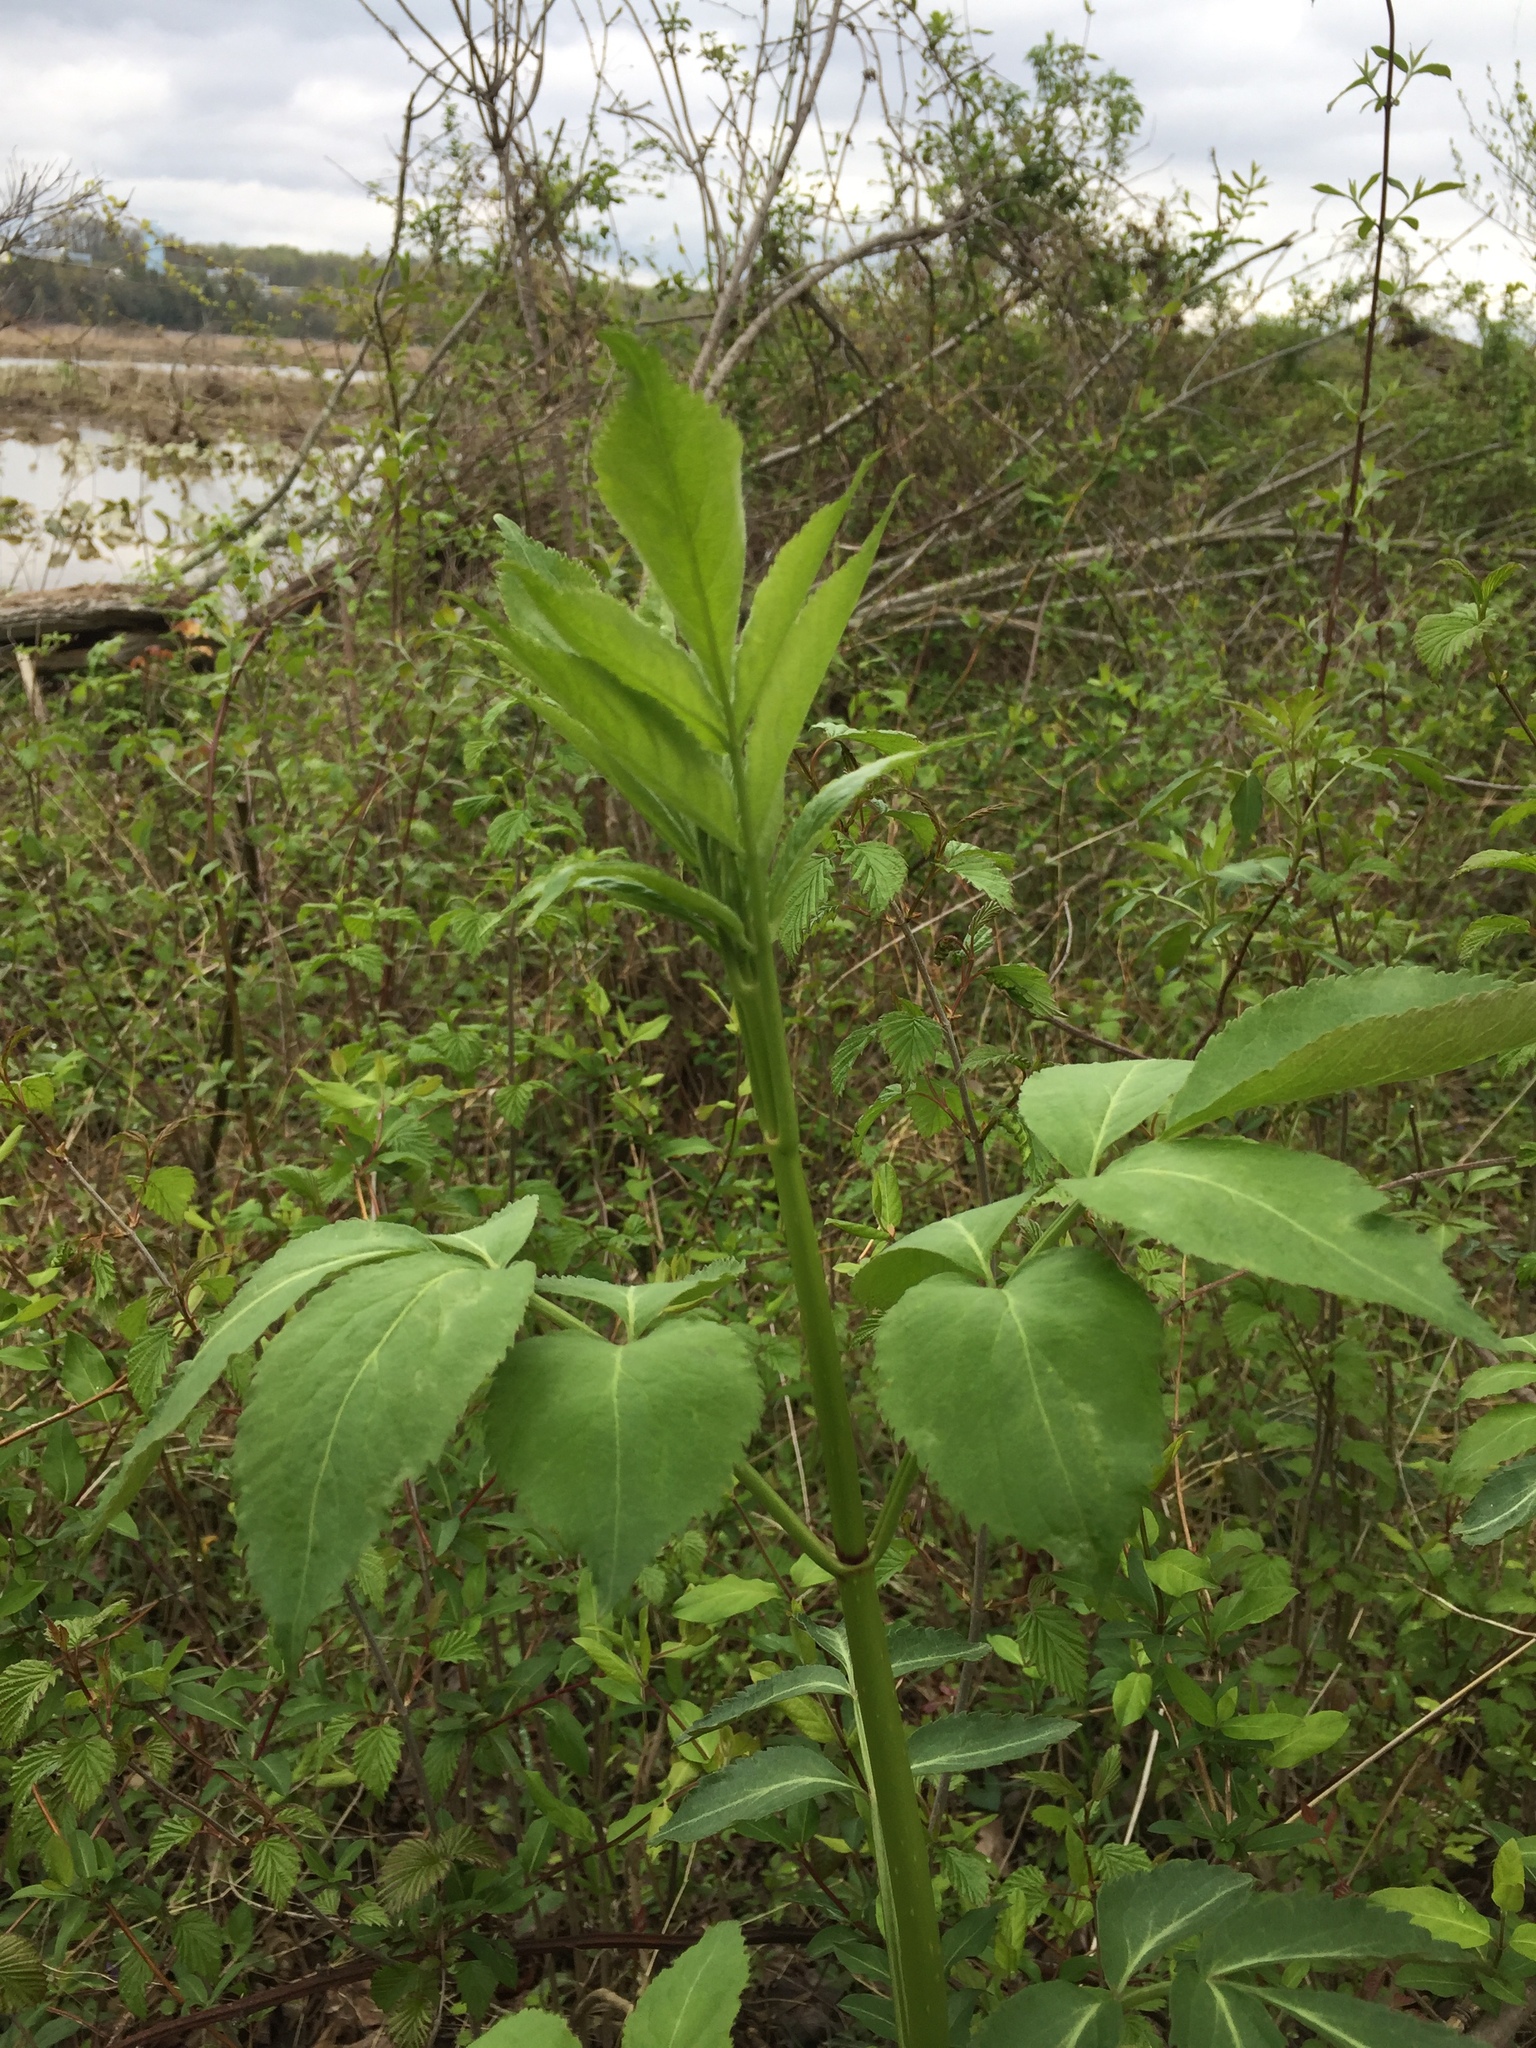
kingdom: Plantae
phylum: Tracheophyta
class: Magnoliopsida
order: Dipsacales
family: Viburnaceae
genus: Sambucus
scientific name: Sambucus
